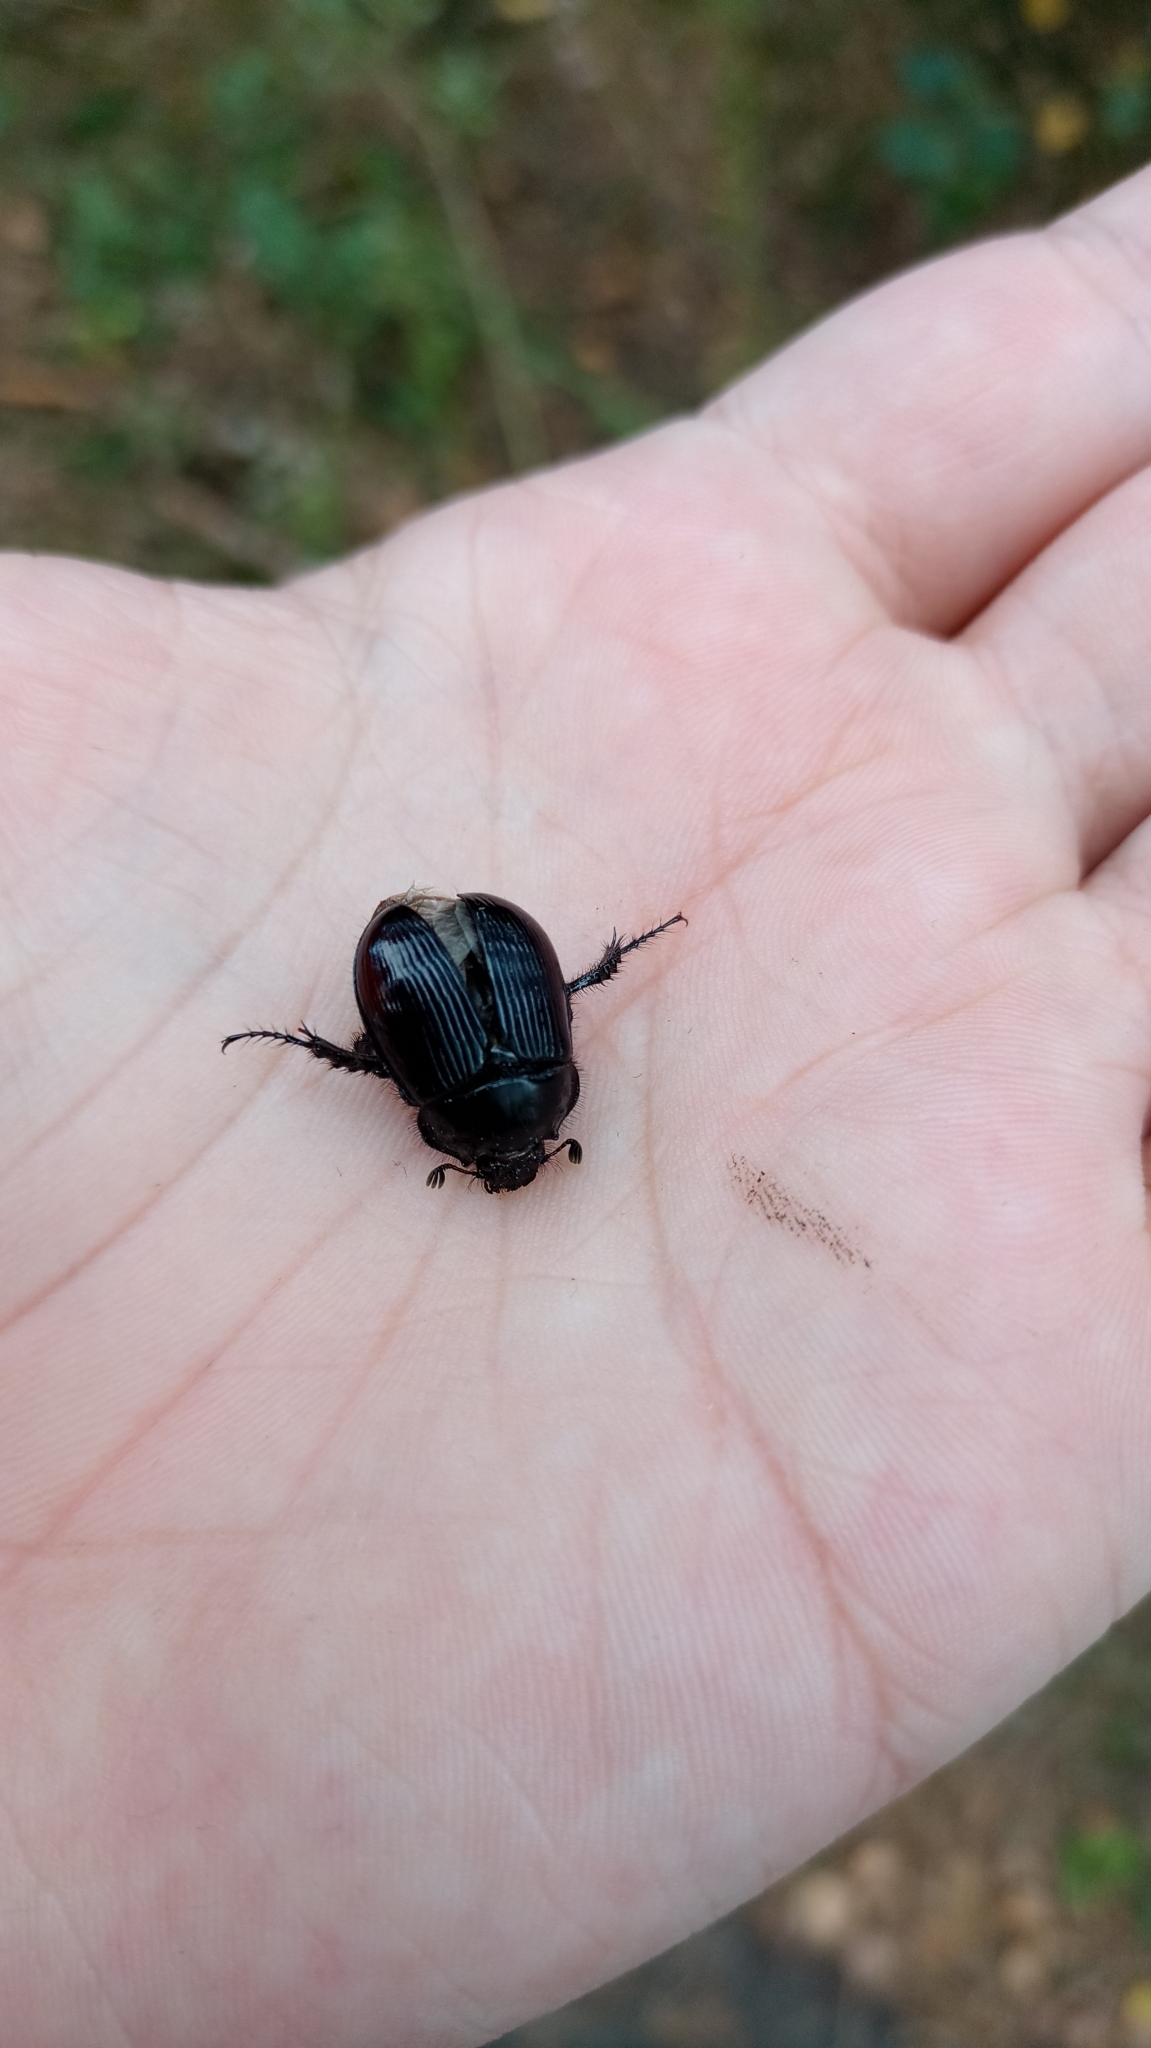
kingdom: Animalia
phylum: Arthropoda
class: Insecta
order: Coleoptera
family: Geotrupidae
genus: Typhaeus
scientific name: Typhaeus typhoeus
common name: Minotaur beetle
